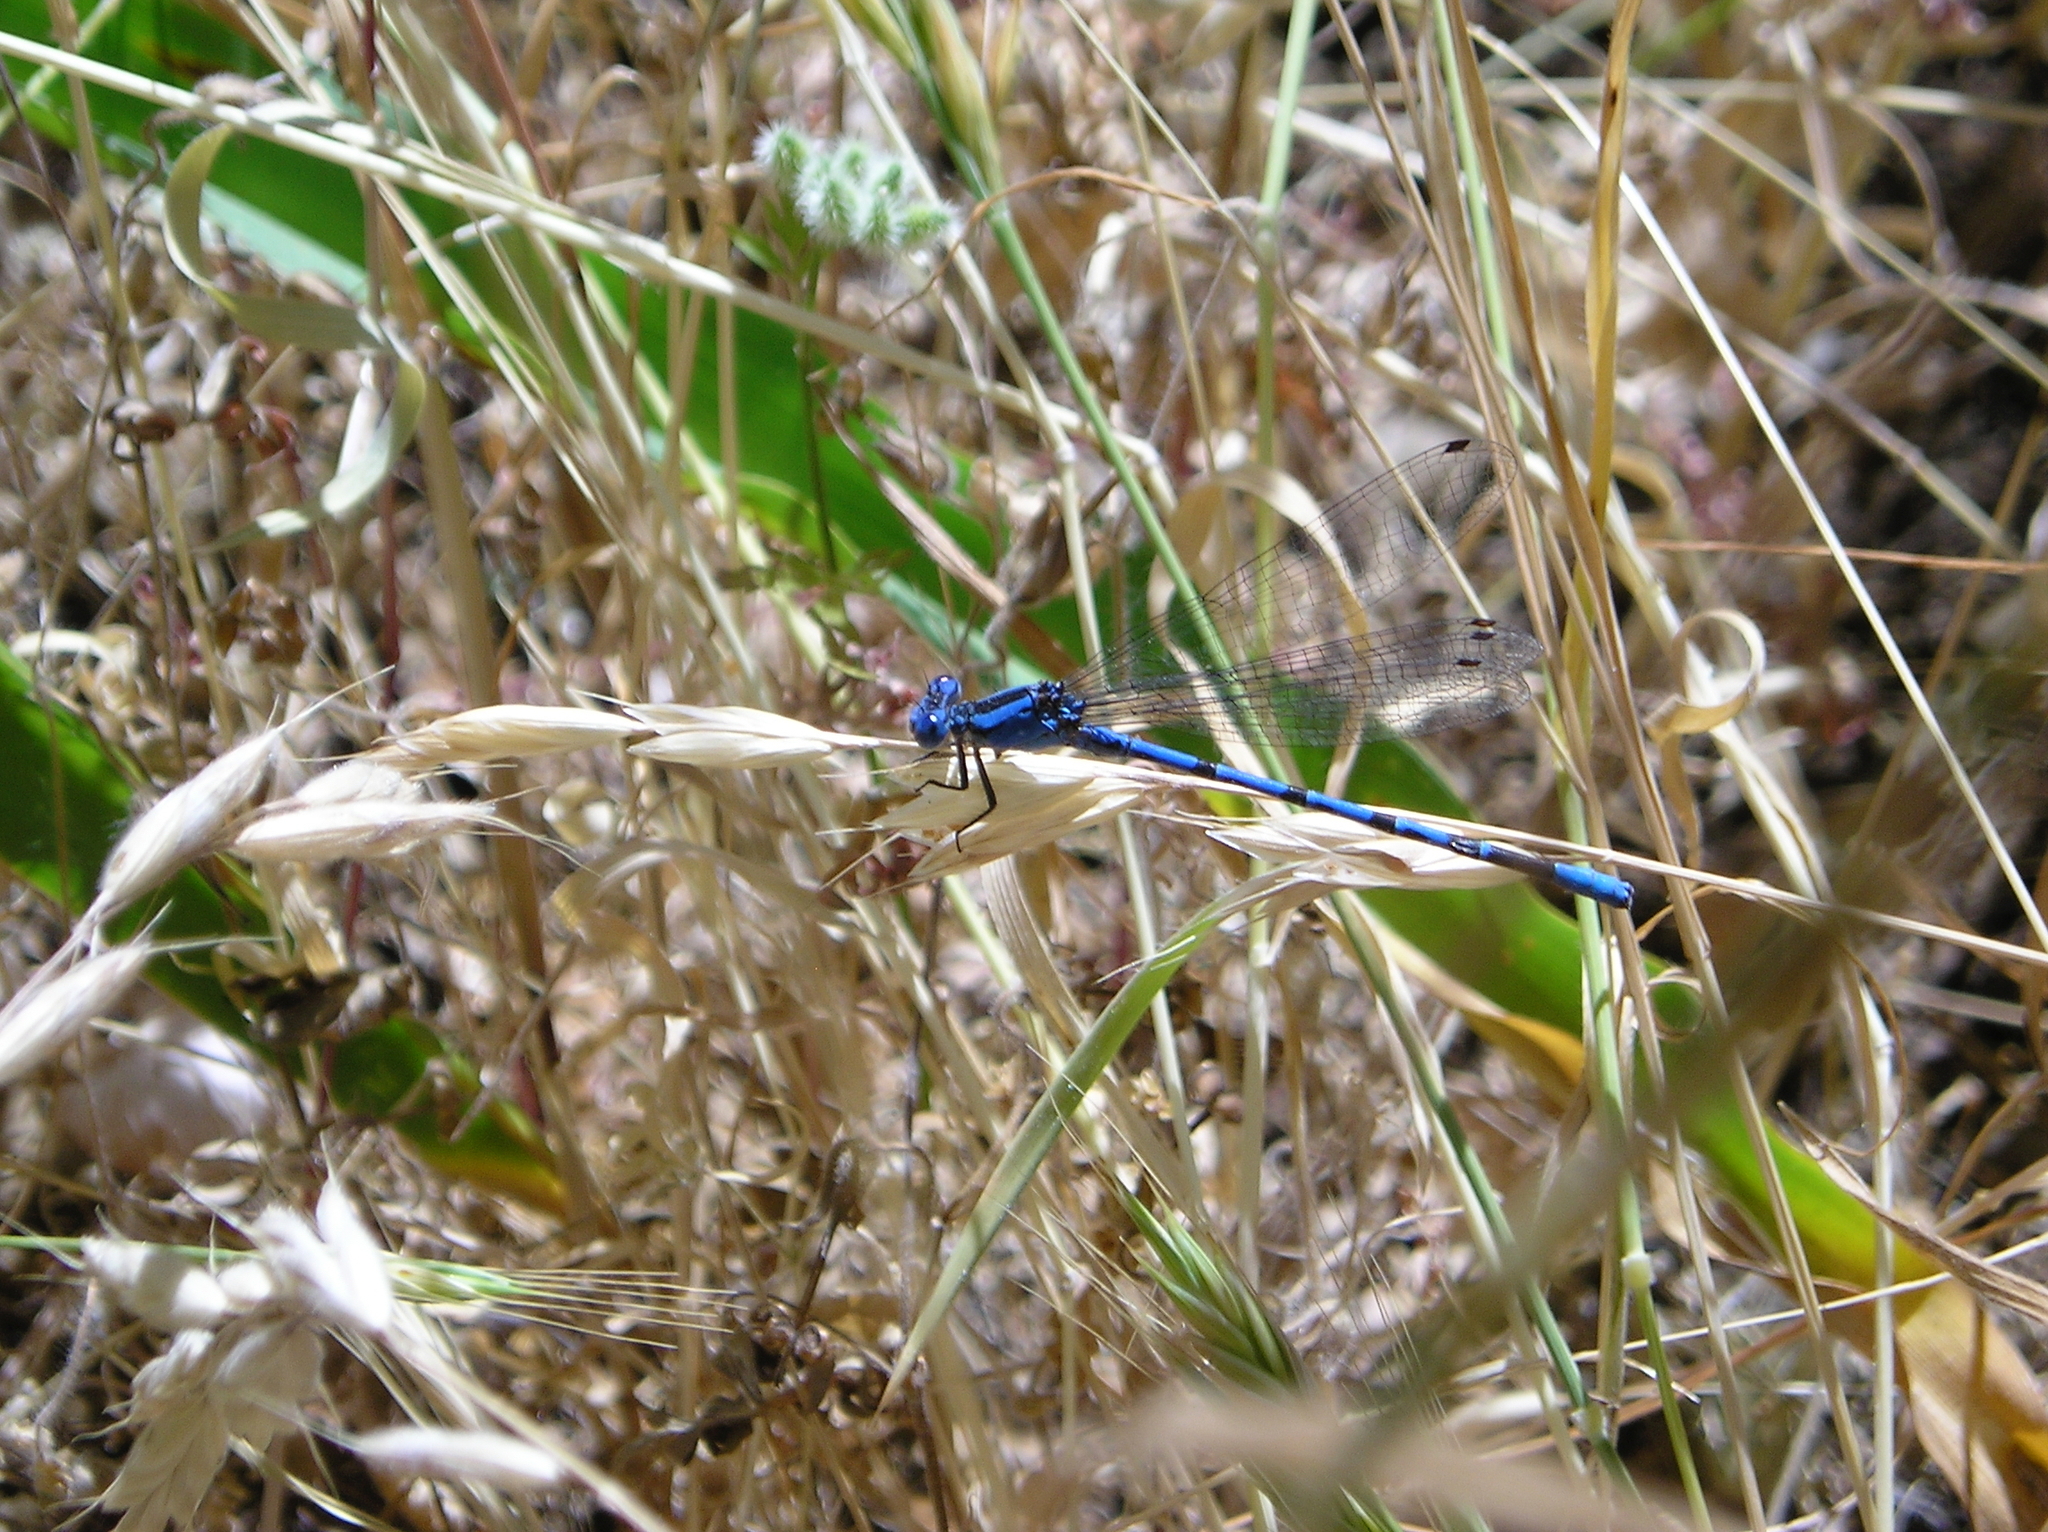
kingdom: Animalia
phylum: Arthropoda
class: Insecta
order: Odonata
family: Coenagrionidae
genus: Argia
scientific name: Argia vivida
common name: Vivid dancer
